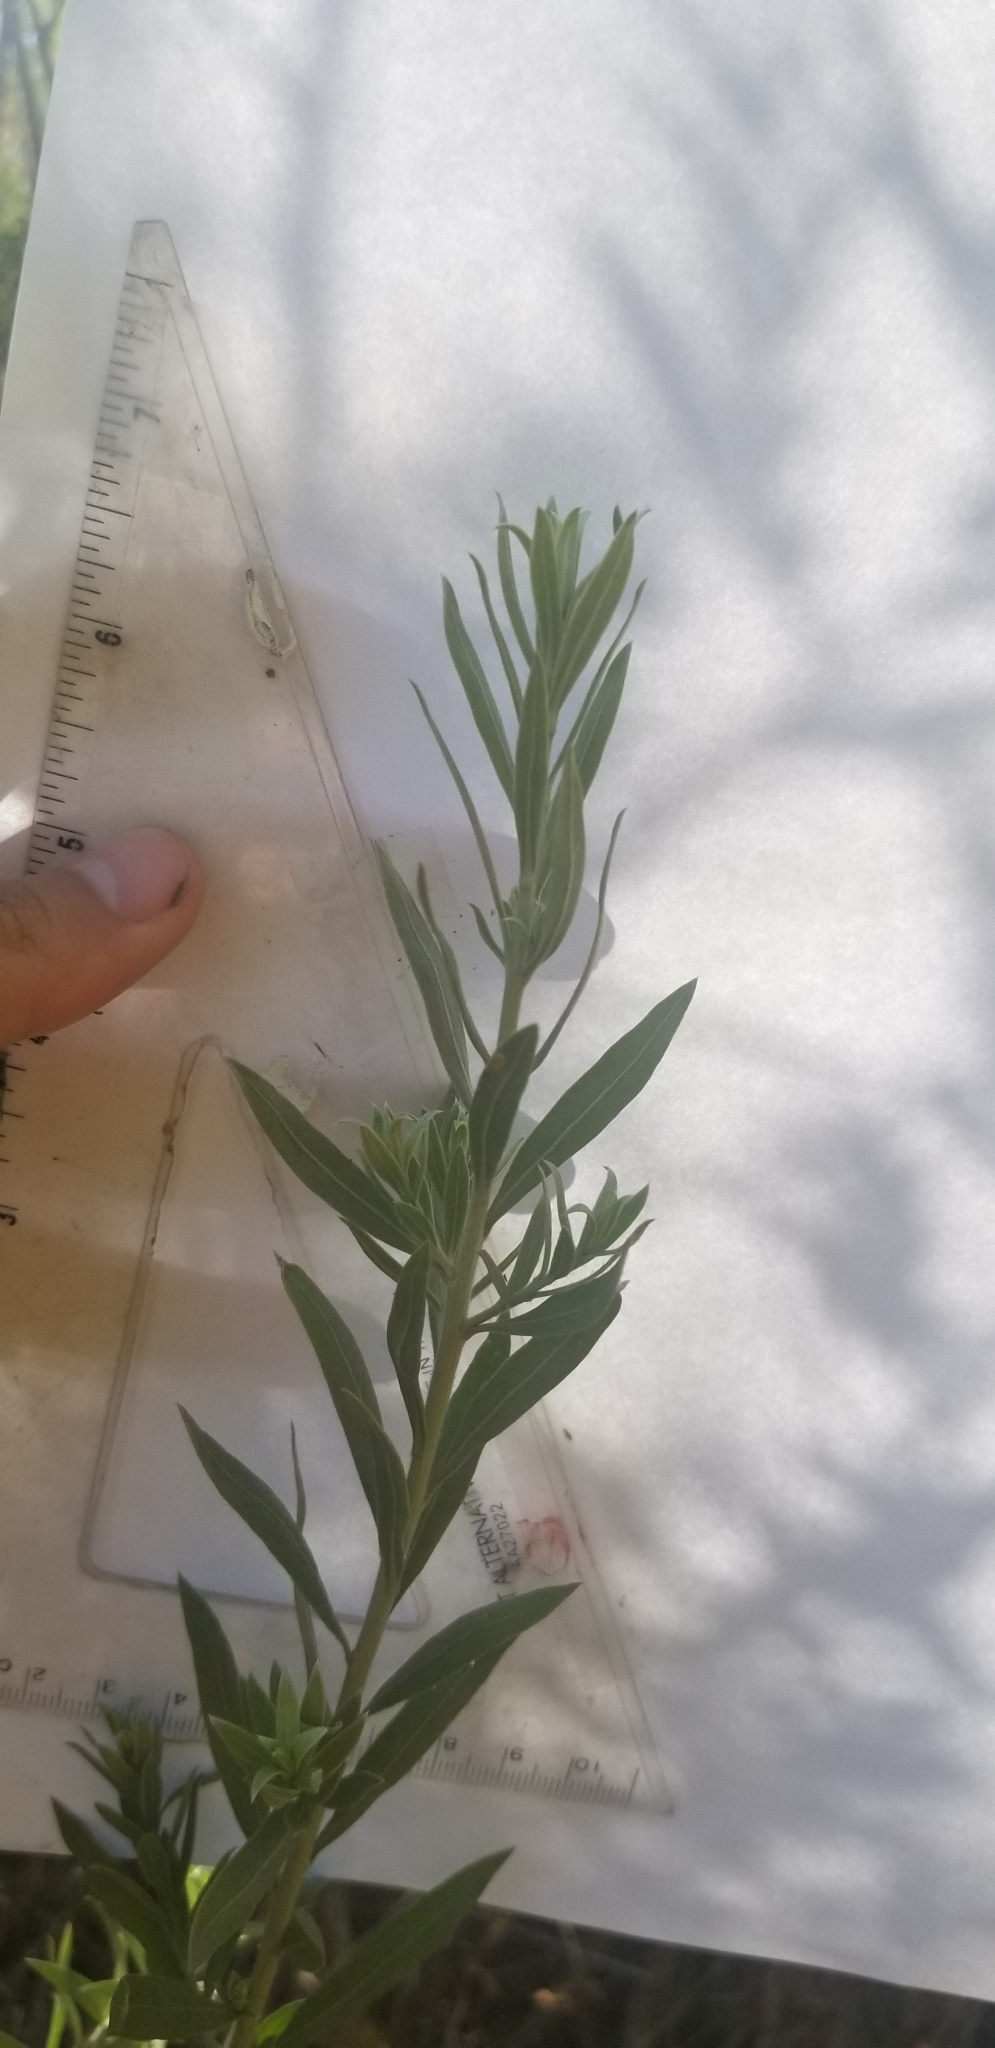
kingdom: Plantae
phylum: Tracheophyta
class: Magnoliopsida
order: Asterales
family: Asteraceae
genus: Pluchea
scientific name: Pluchea sericea
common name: Arrow-weed
